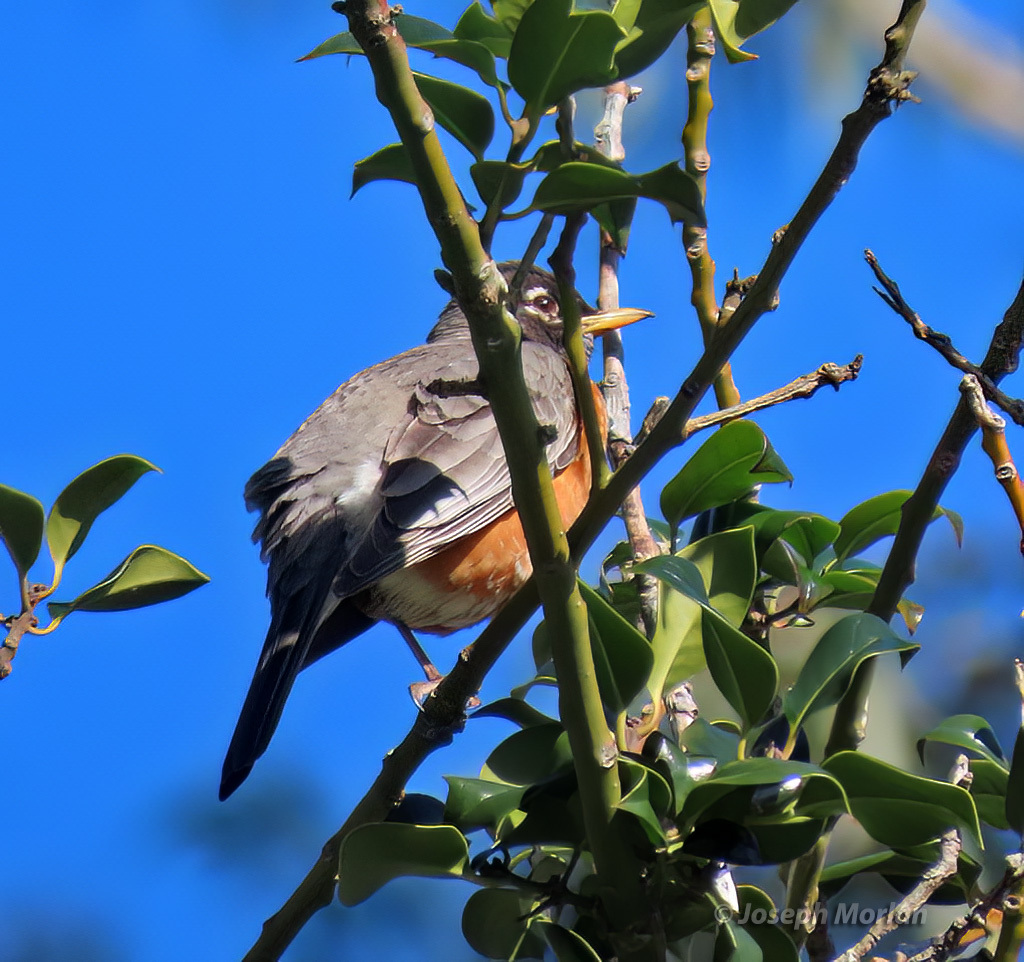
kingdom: Animalia
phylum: Chordata
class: Aves
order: Passeriformes
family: Turdidae
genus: Turdus
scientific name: Turdus migratorius
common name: American robin
